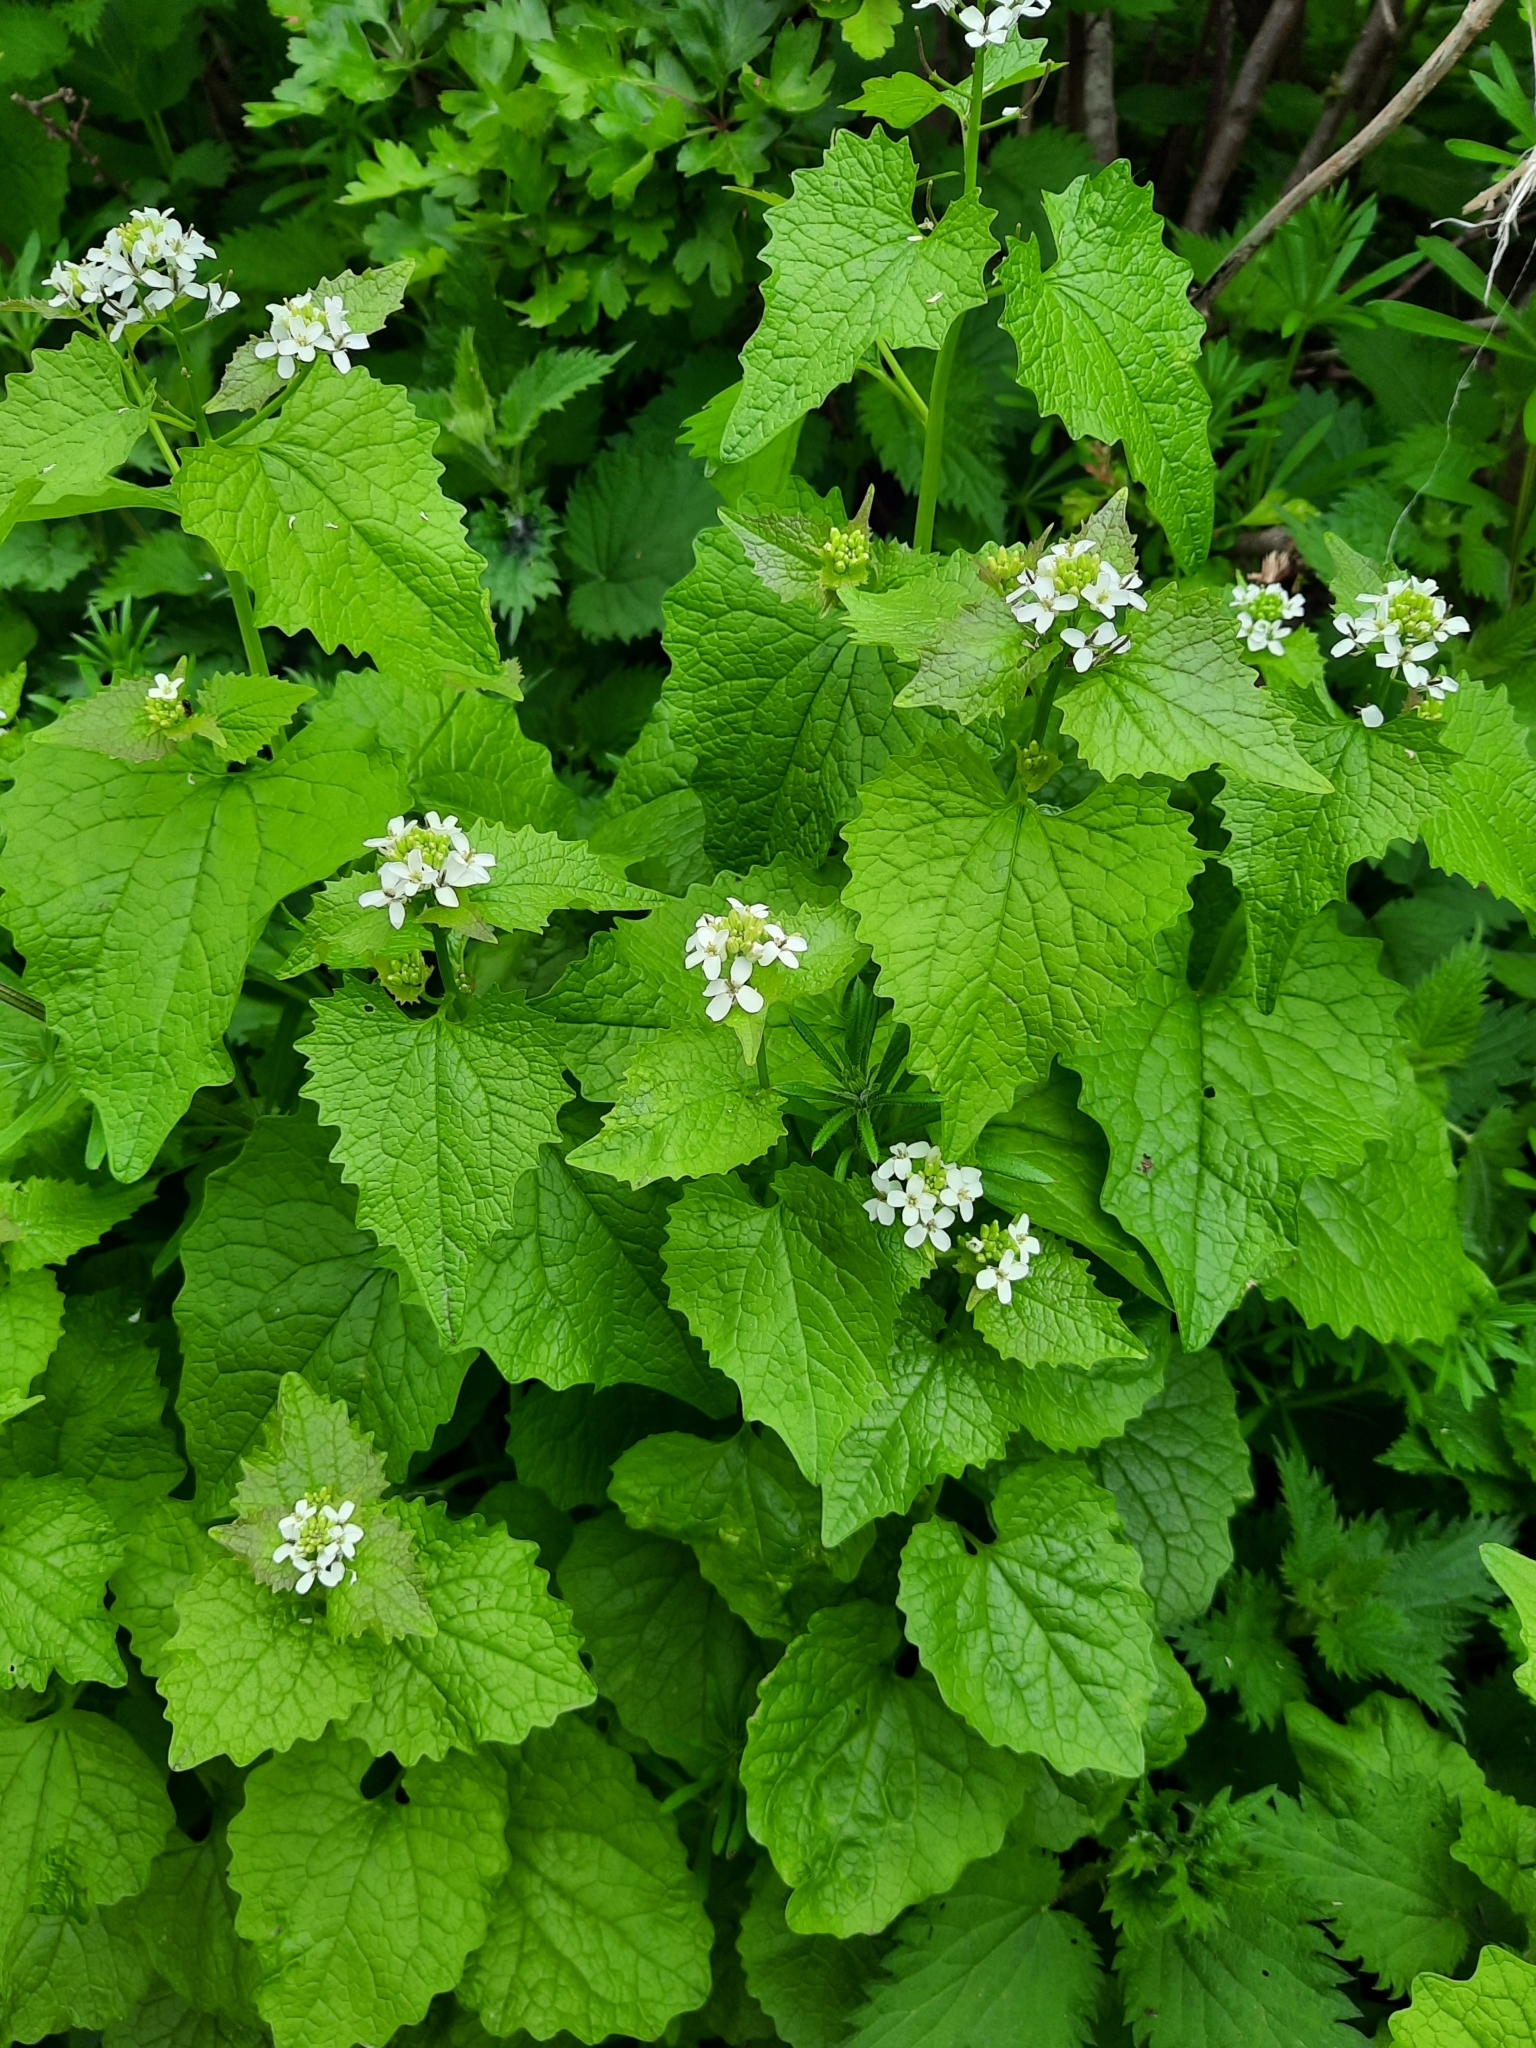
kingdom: Plantae
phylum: Tracheophyta
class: Magnoliopsida
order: Brassicales
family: Brassicaceae
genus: Alliaria
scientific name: Alliaria petiolata
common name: Garlic mustard
